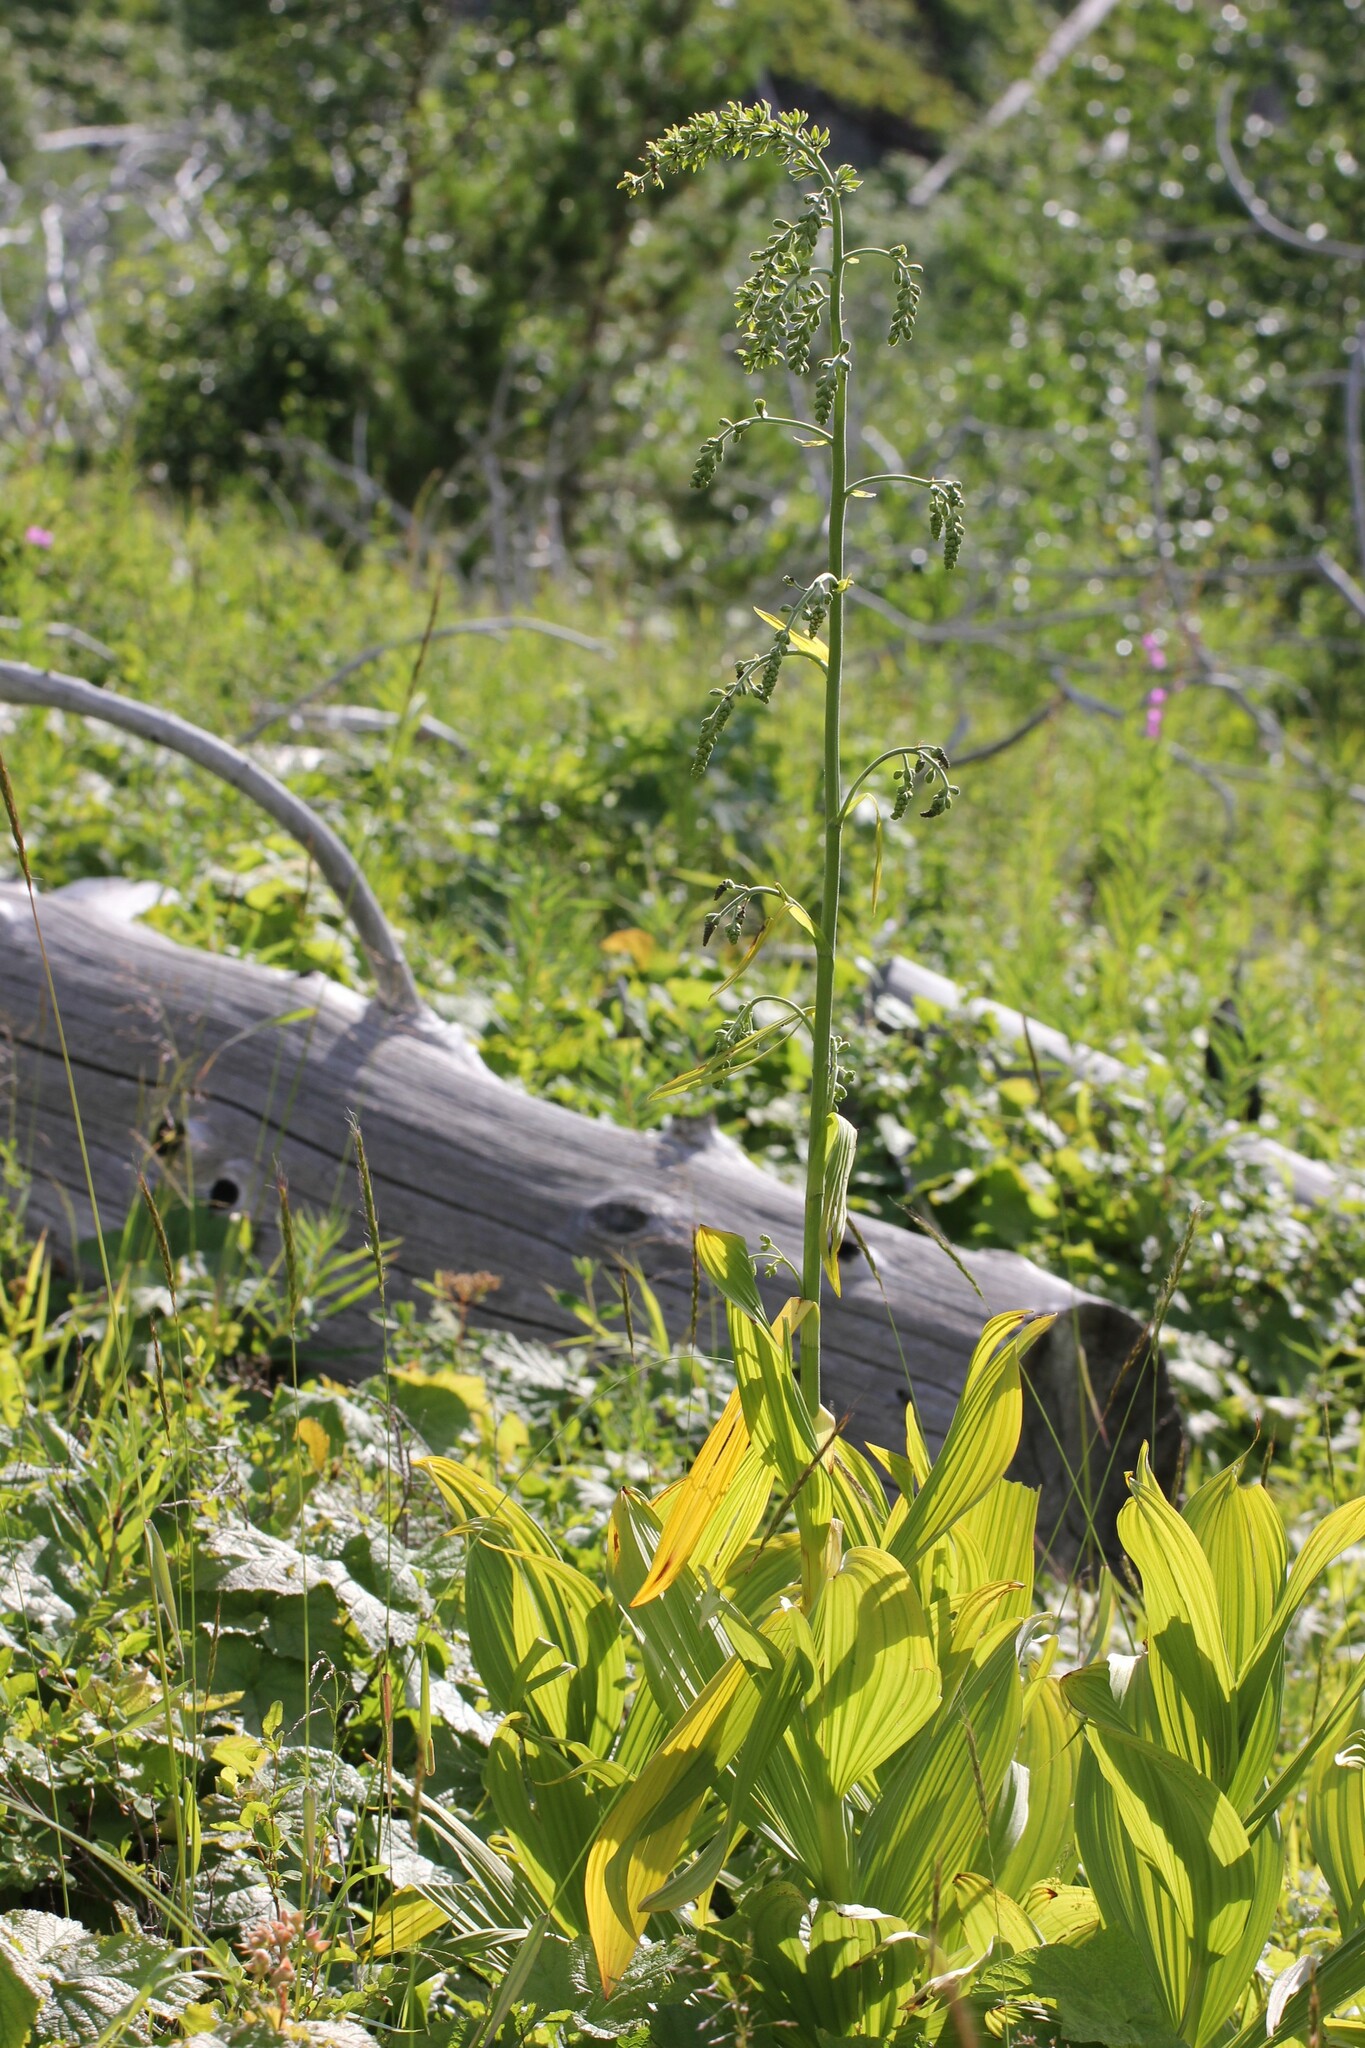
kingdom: Plantae
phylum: Tracheophyta
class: Liliopsida
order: Liliales
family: Melanthiaceae
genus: Veratrum
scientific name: Veratrum viride
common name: American false hellebore
